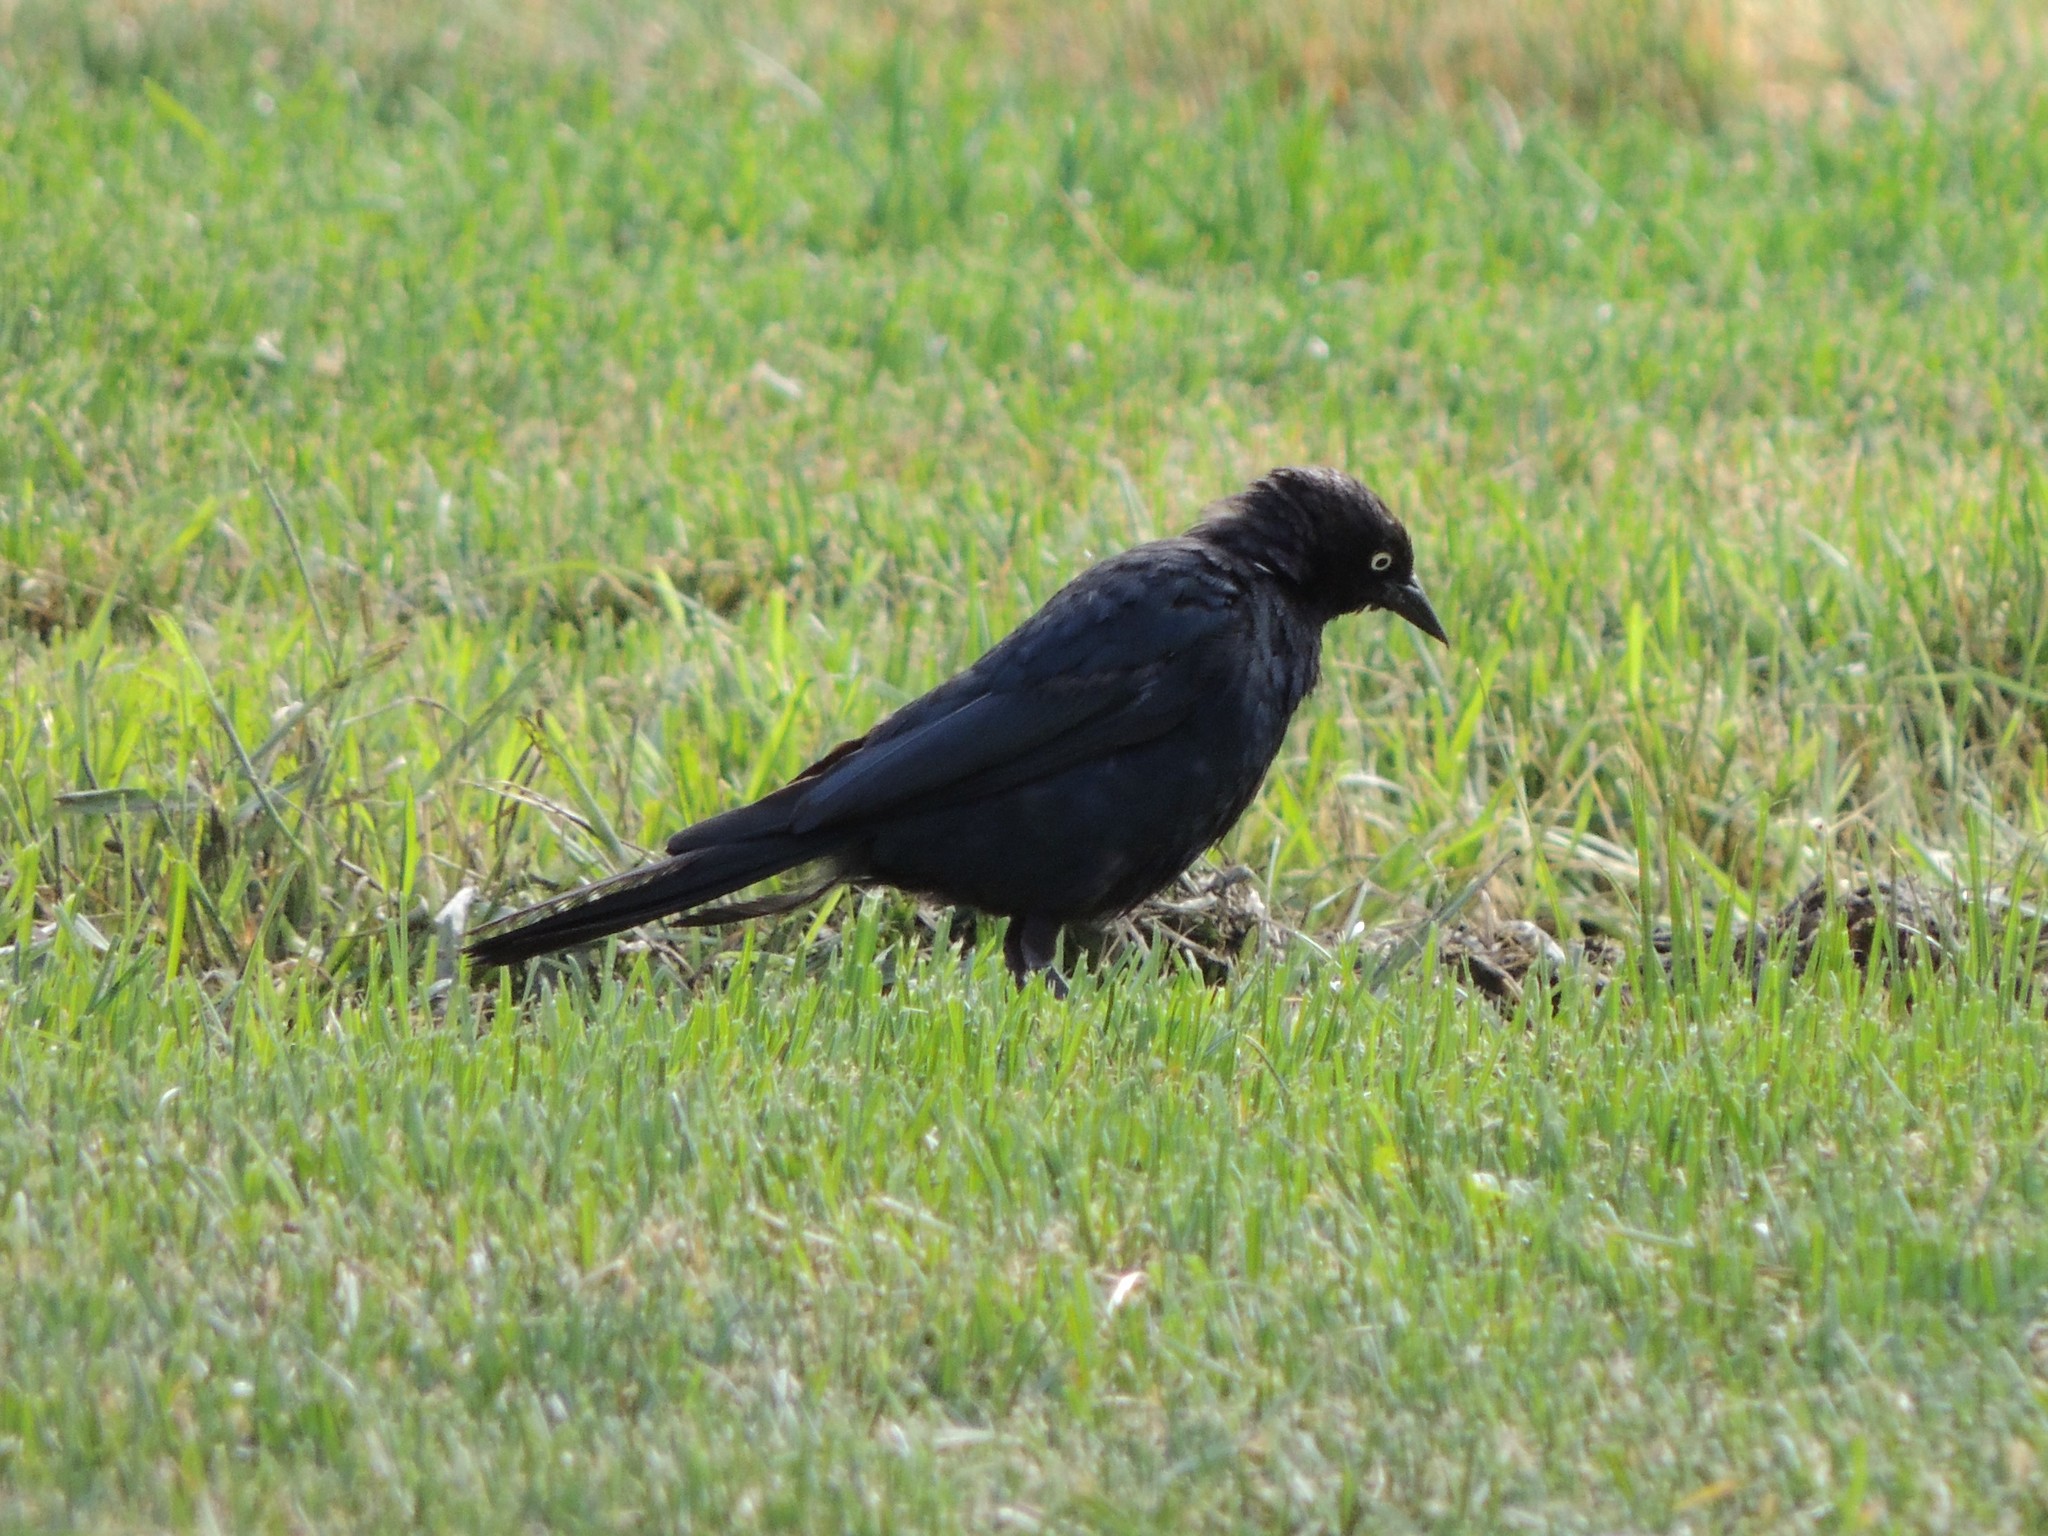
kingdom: Animalia
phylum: Chordata
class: Aves
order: Passeriformes
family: Icteridae
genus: Euphagus
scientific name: Euphagus cyanocephalus
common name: Brewer's blackbird
